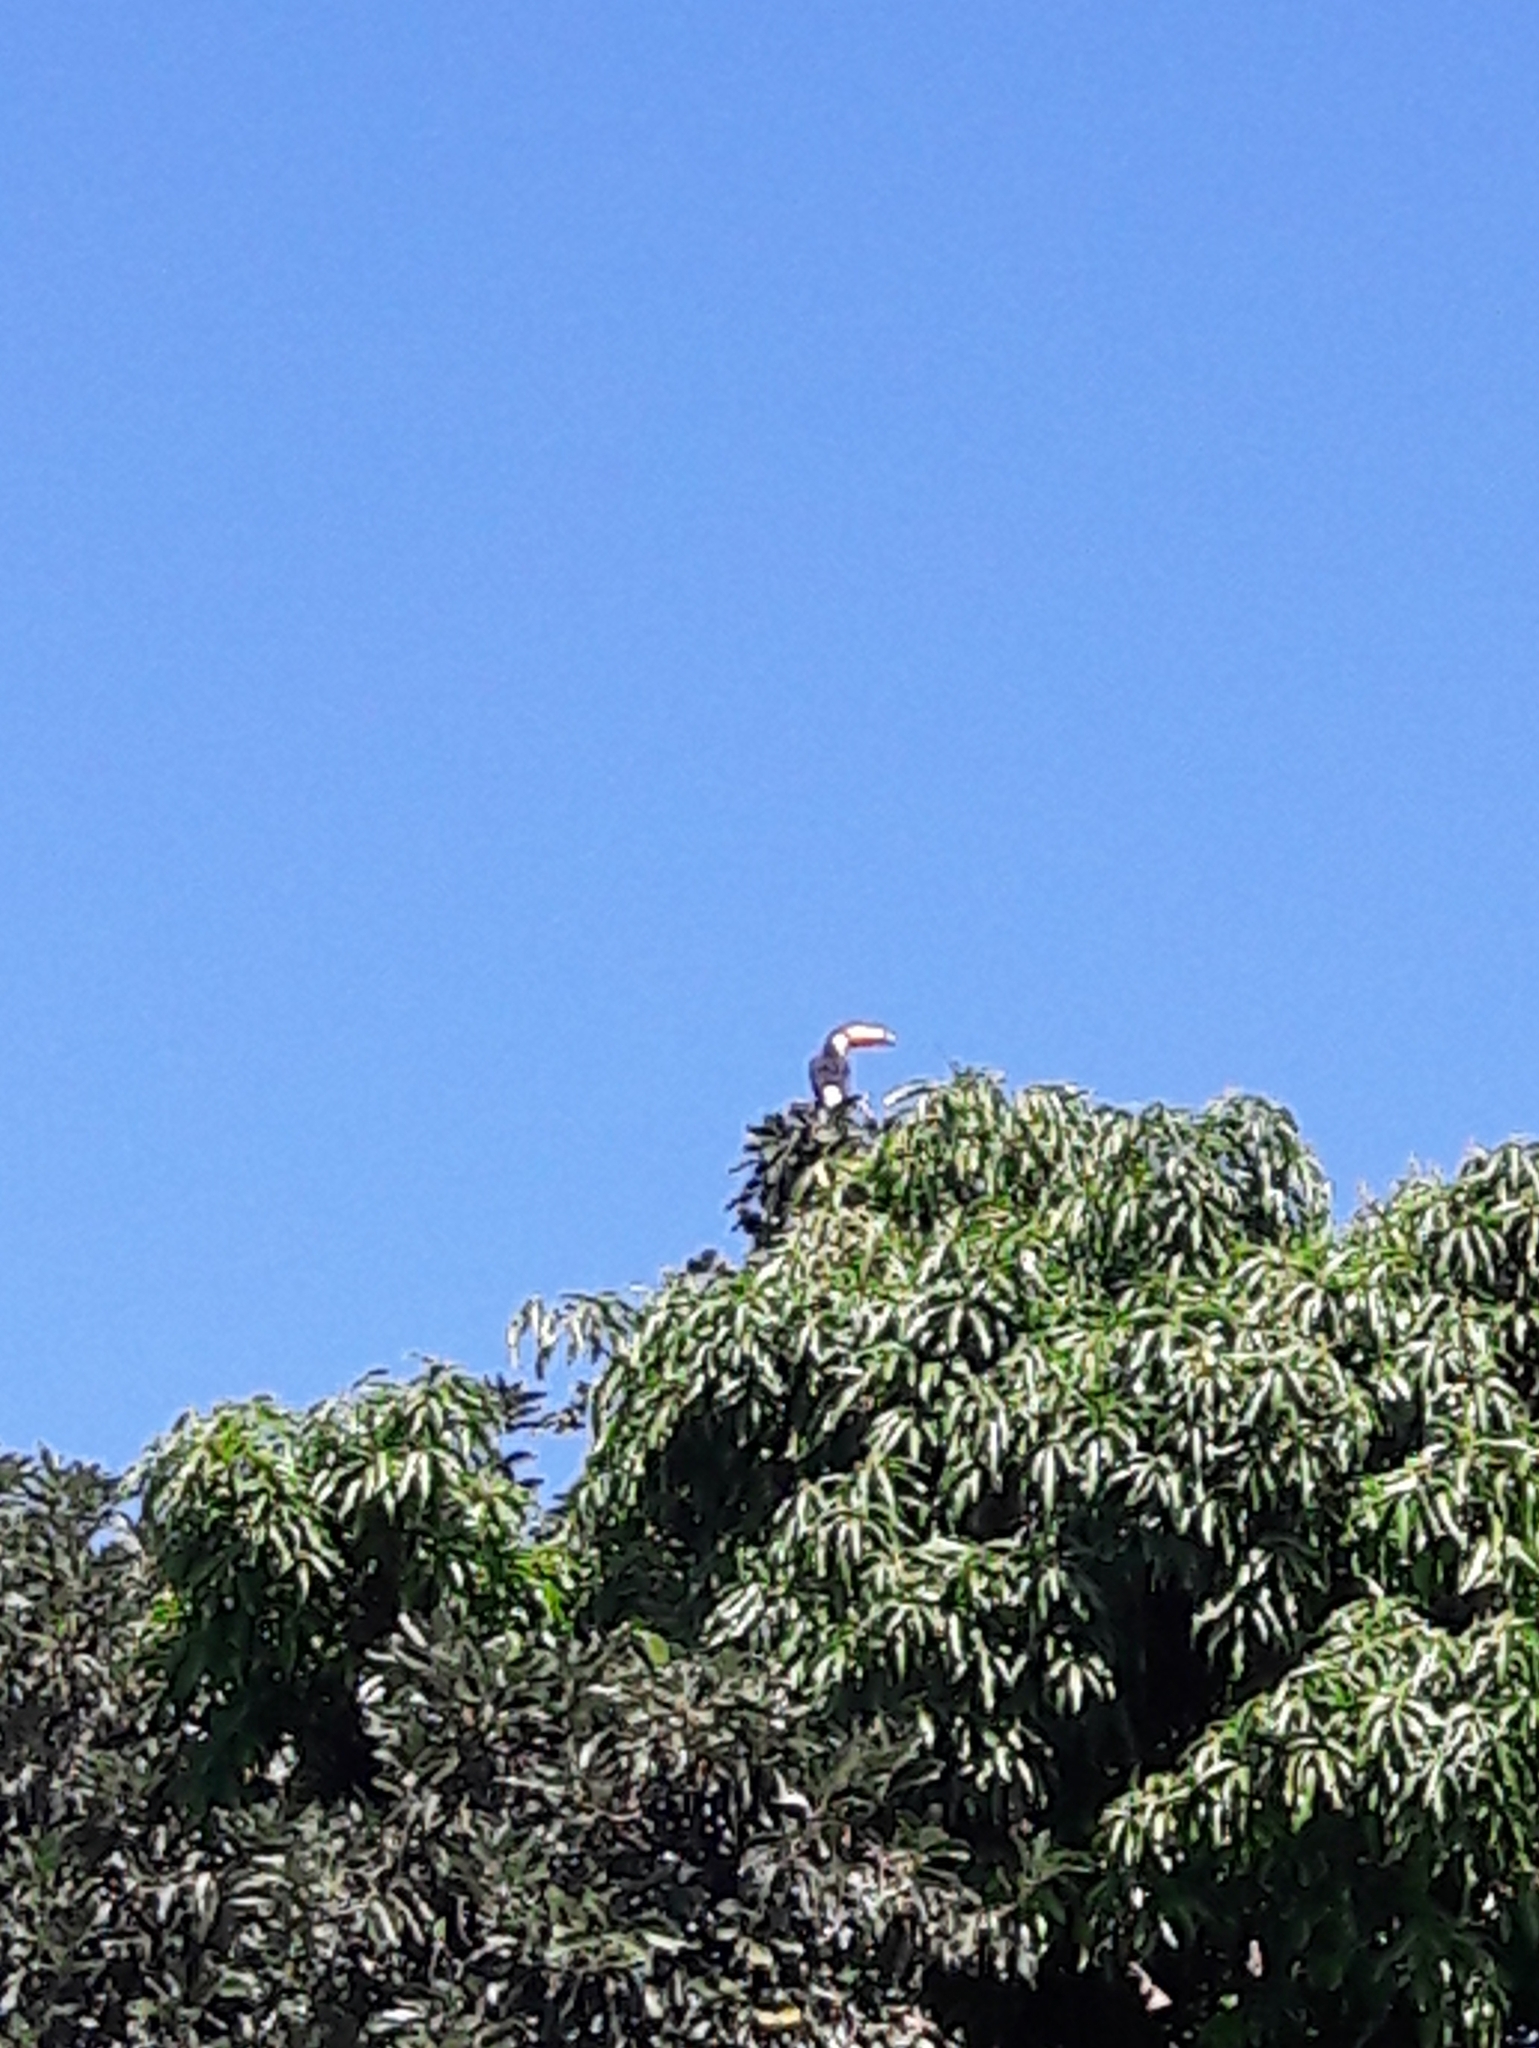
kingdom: Animalia
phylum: Chordata
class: Aves
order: Piciformes
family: Ramphastidae
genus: Ramphastos
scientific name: Ramphastos toco
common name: Toco toucan
